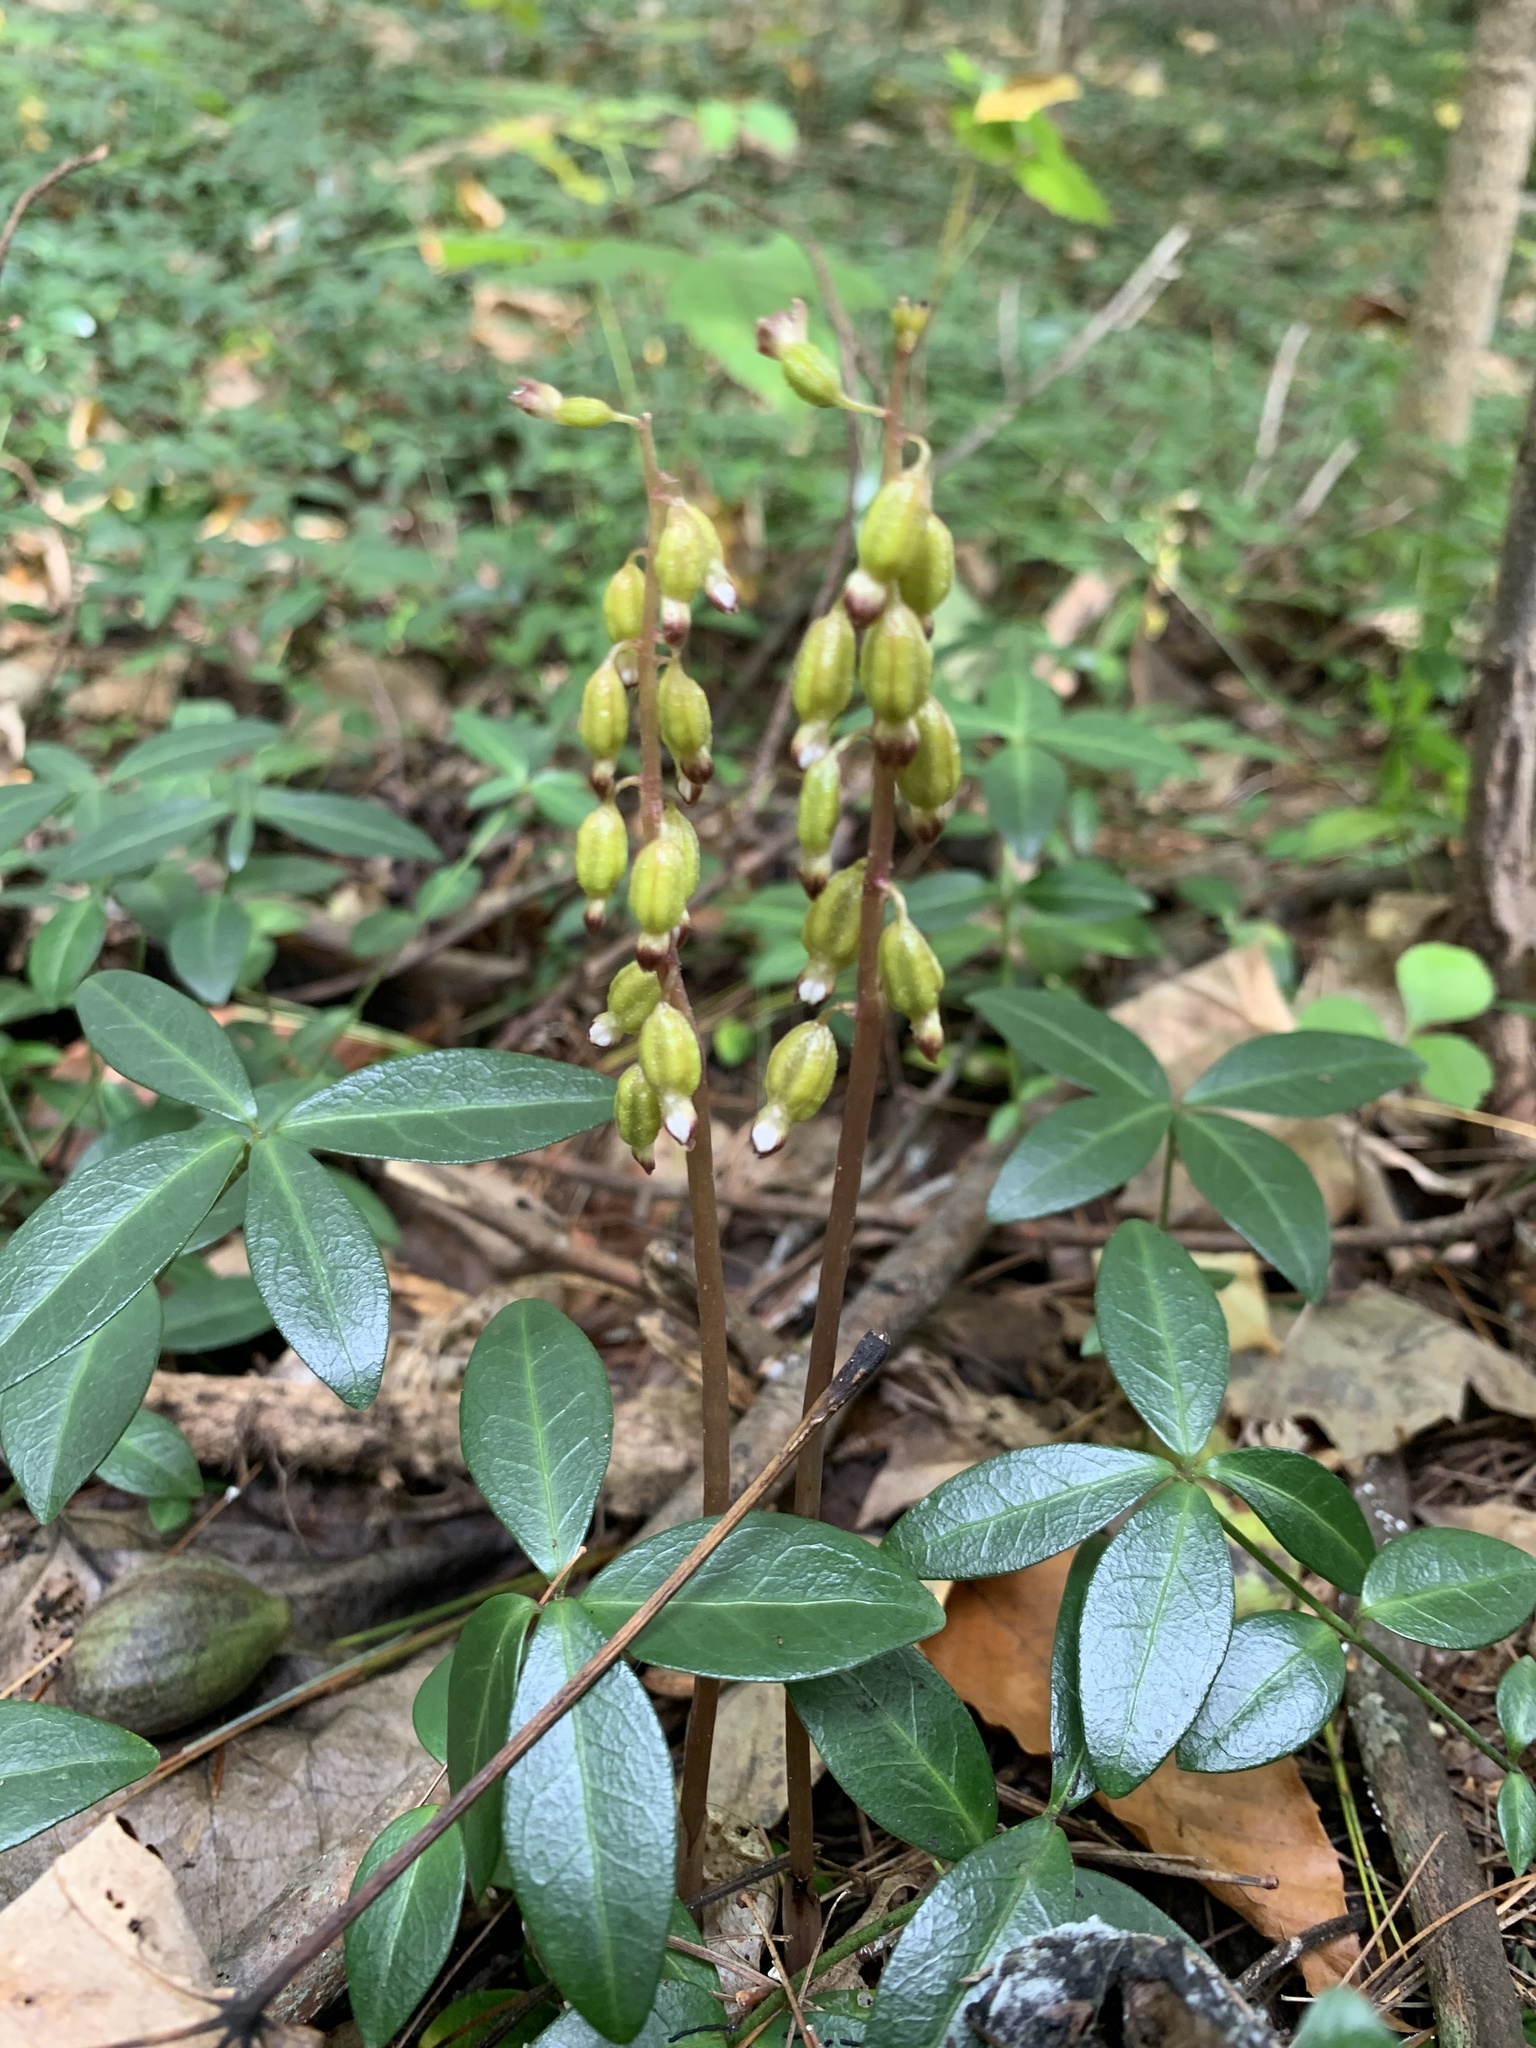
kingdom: Plantae
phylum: Tracheophyta
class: Liliopsida
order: Asparagales
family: Orchidaceae
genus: Corallorhiza
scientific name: Corallorhiza odontorhiza
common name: Autumn coralroot
